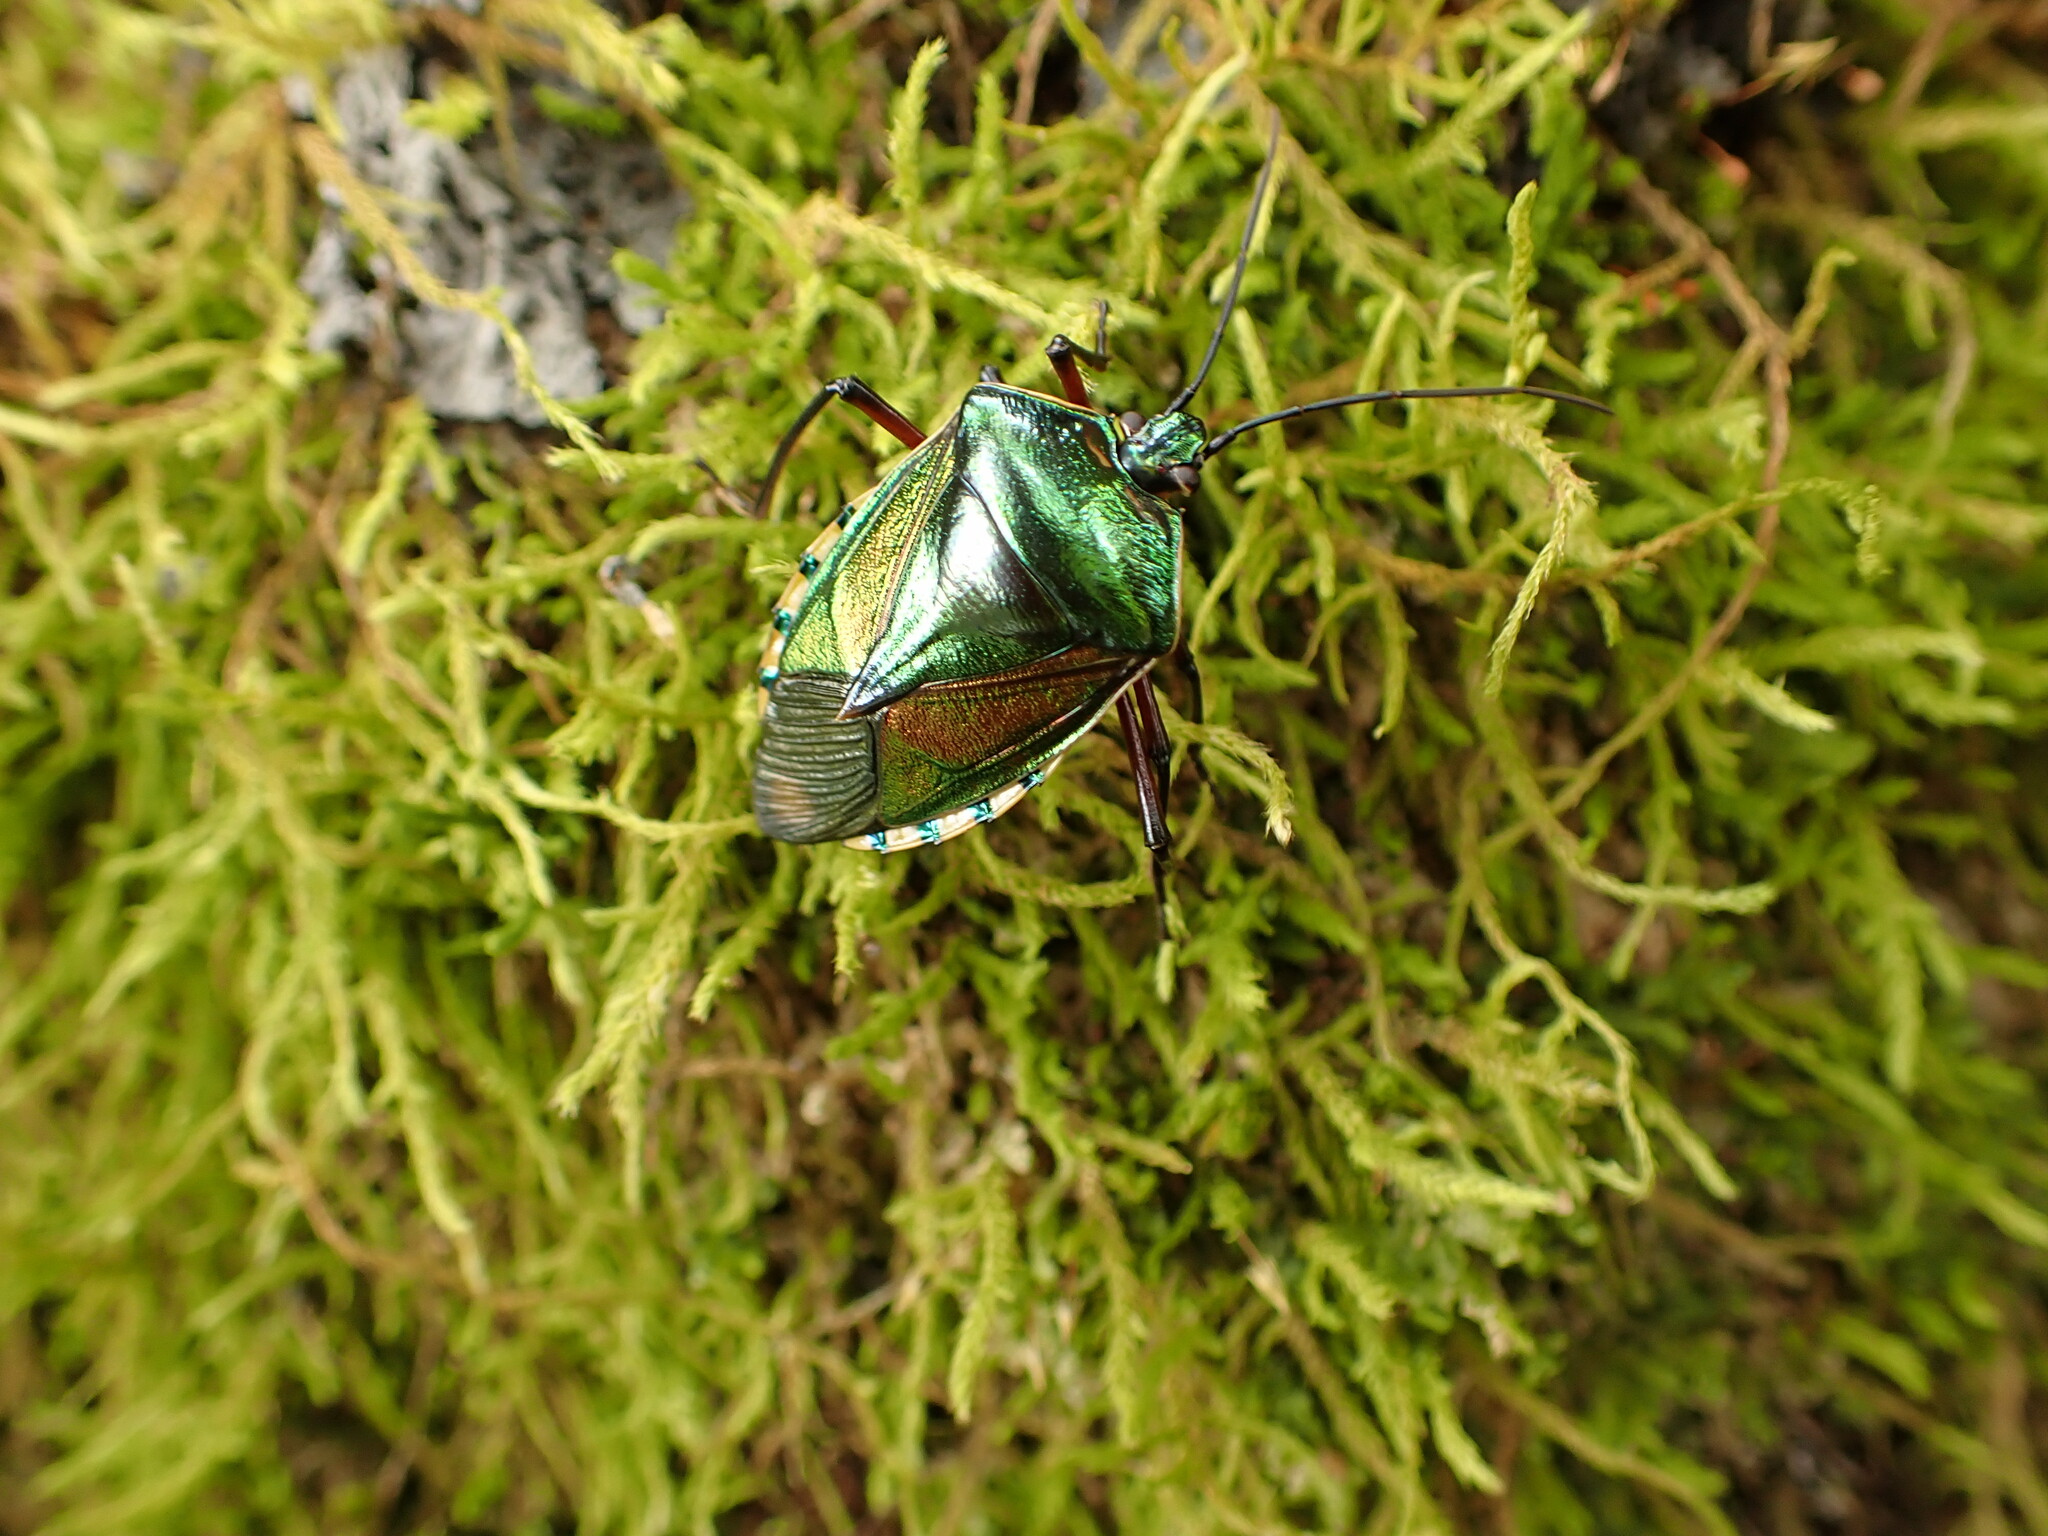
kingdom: Animalia
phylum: Arthropoda
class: Insecta
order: Hemiptera
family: Pentatomidae
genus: Catacanthus
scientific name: Catacanthus viridicatus
